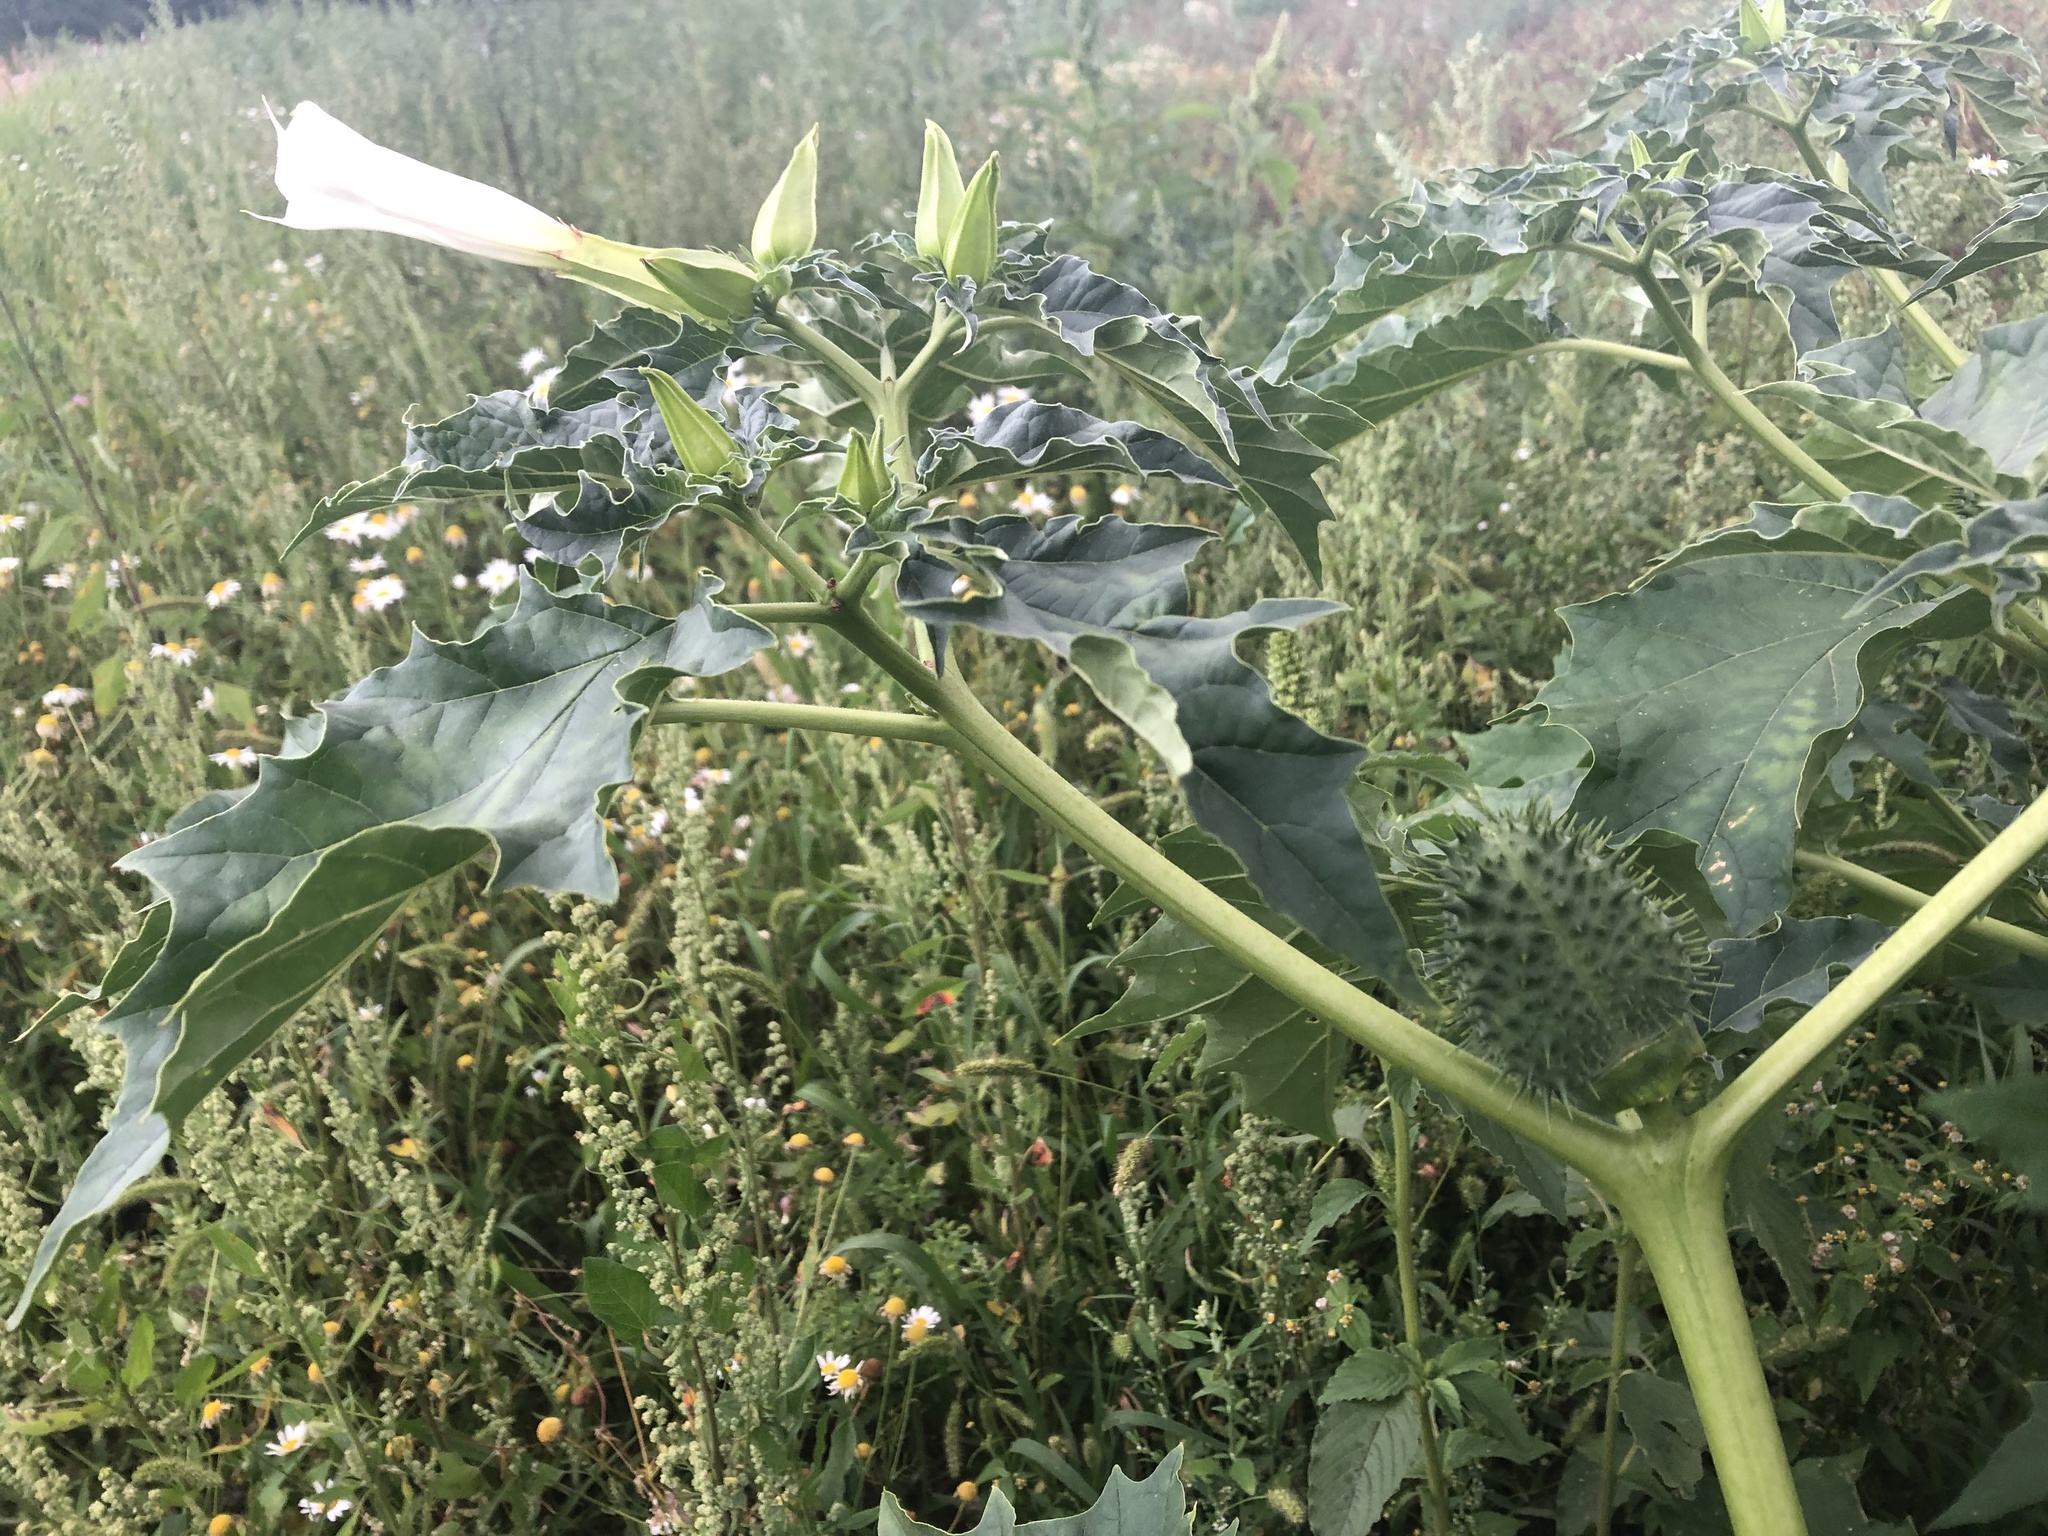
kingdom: Plantae
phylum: Tracheophyta
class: Magnoliopsida
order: Solanales
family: Solanaceae
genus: Datura
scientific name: Datura stramonium
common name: Thorn-apple
